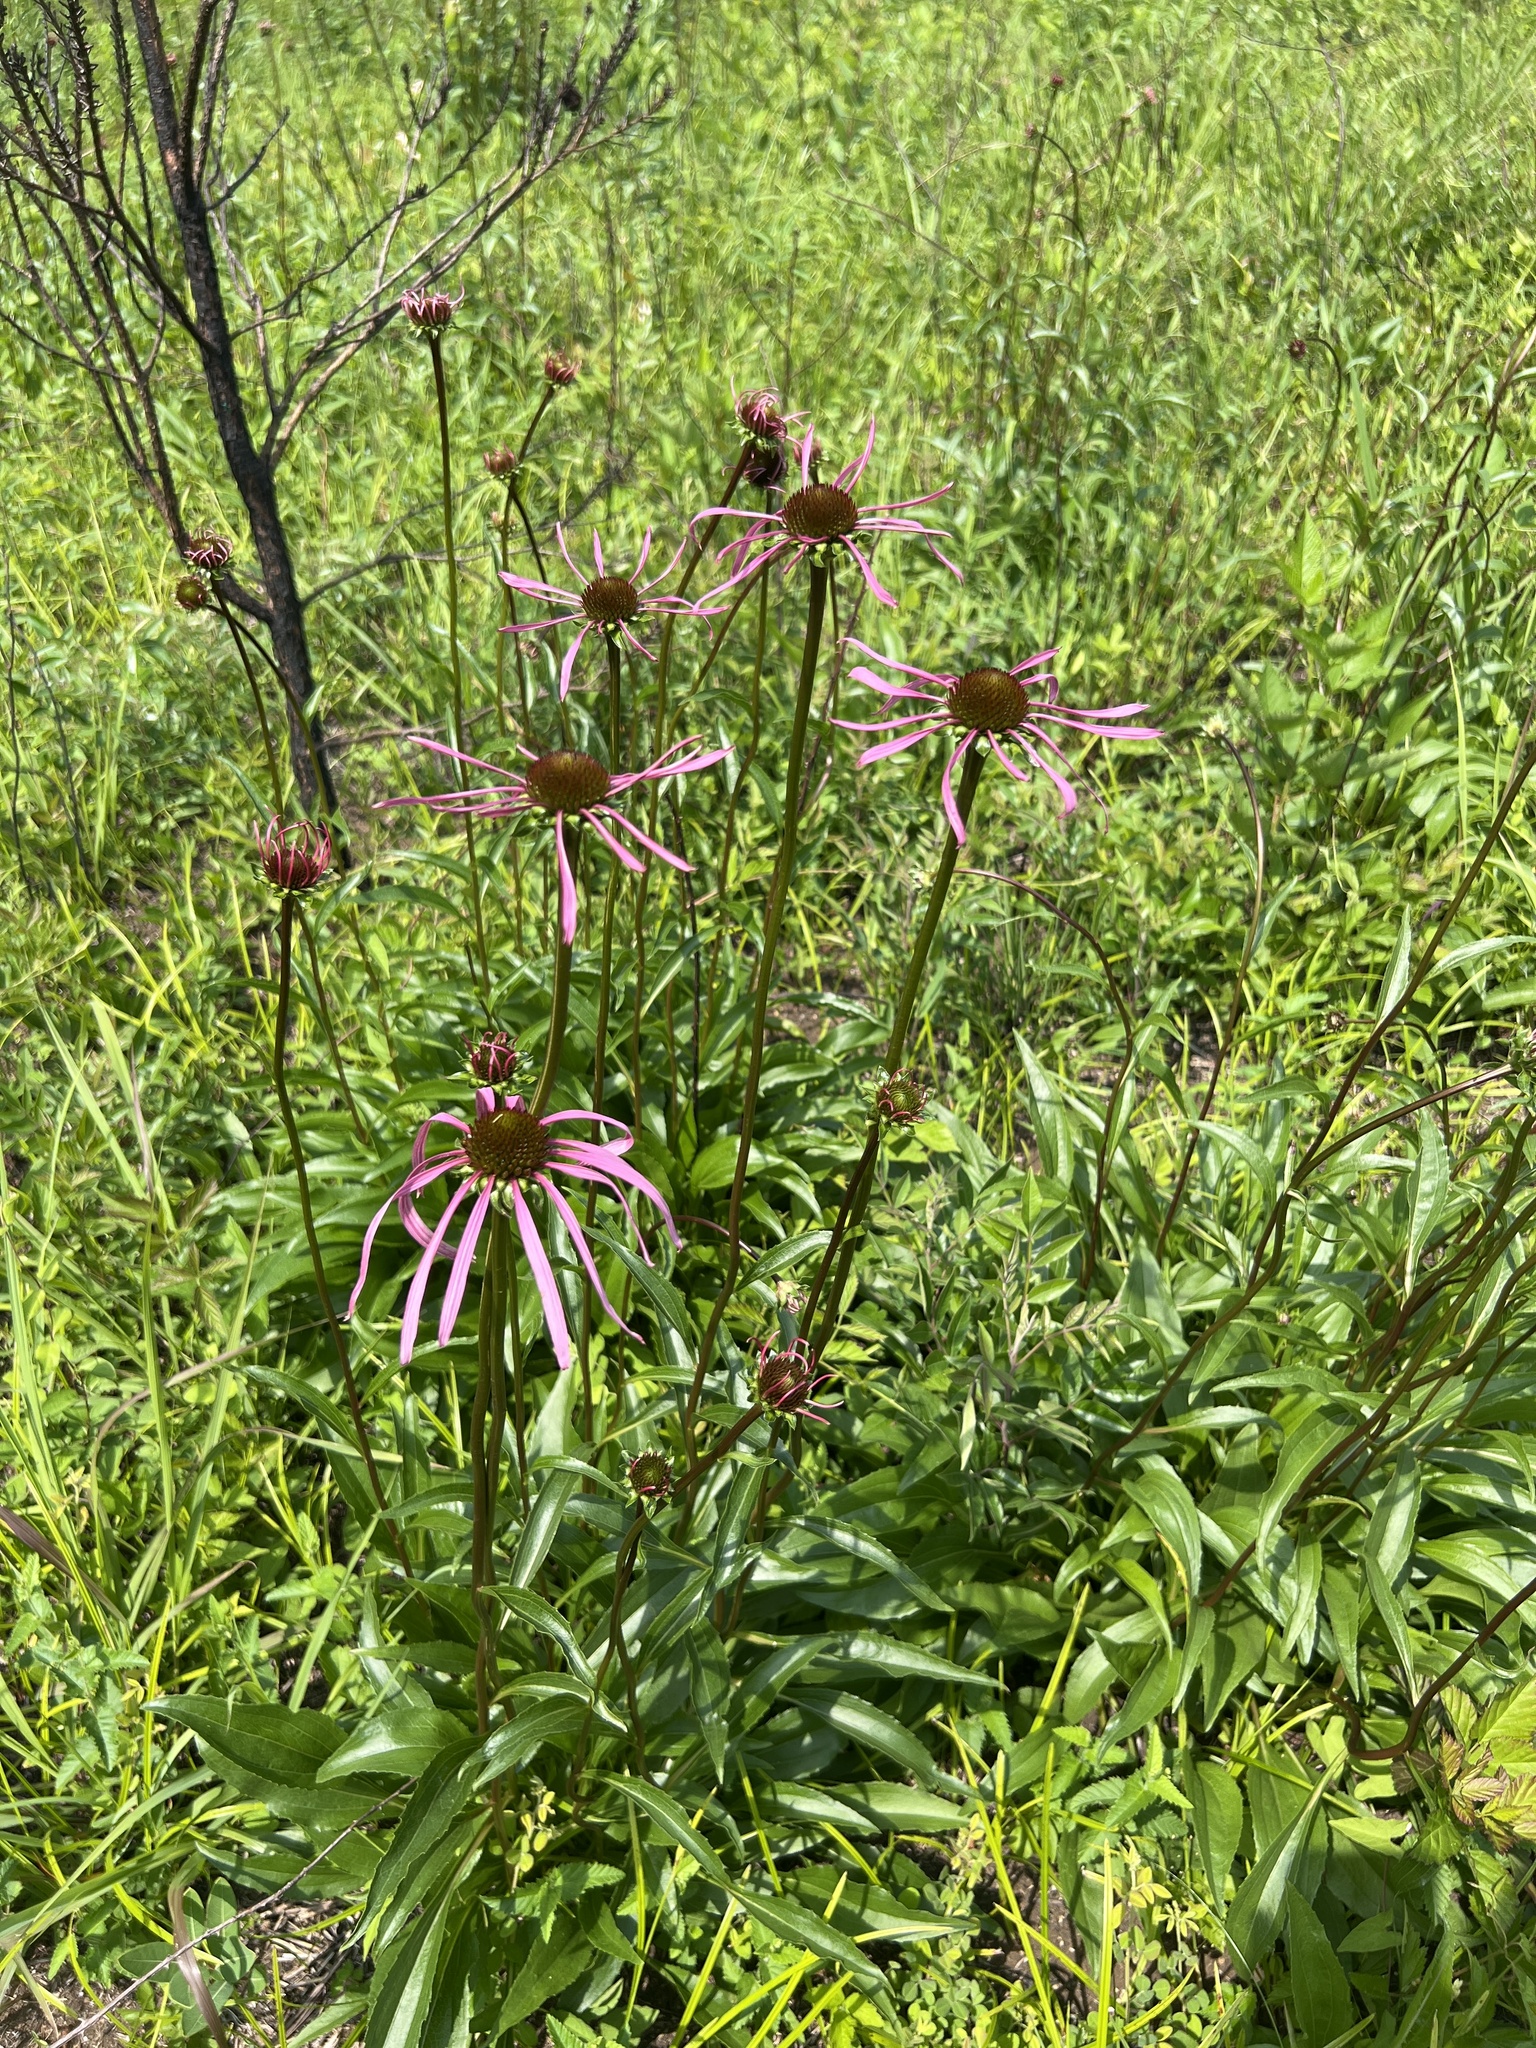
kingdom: Plantae
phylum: Tracheophyta
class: Magnoliopsida
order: Asterales
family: Asteraceae
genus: Echinacea
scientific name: Echinacea laevigata
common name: Smooth coneflower
